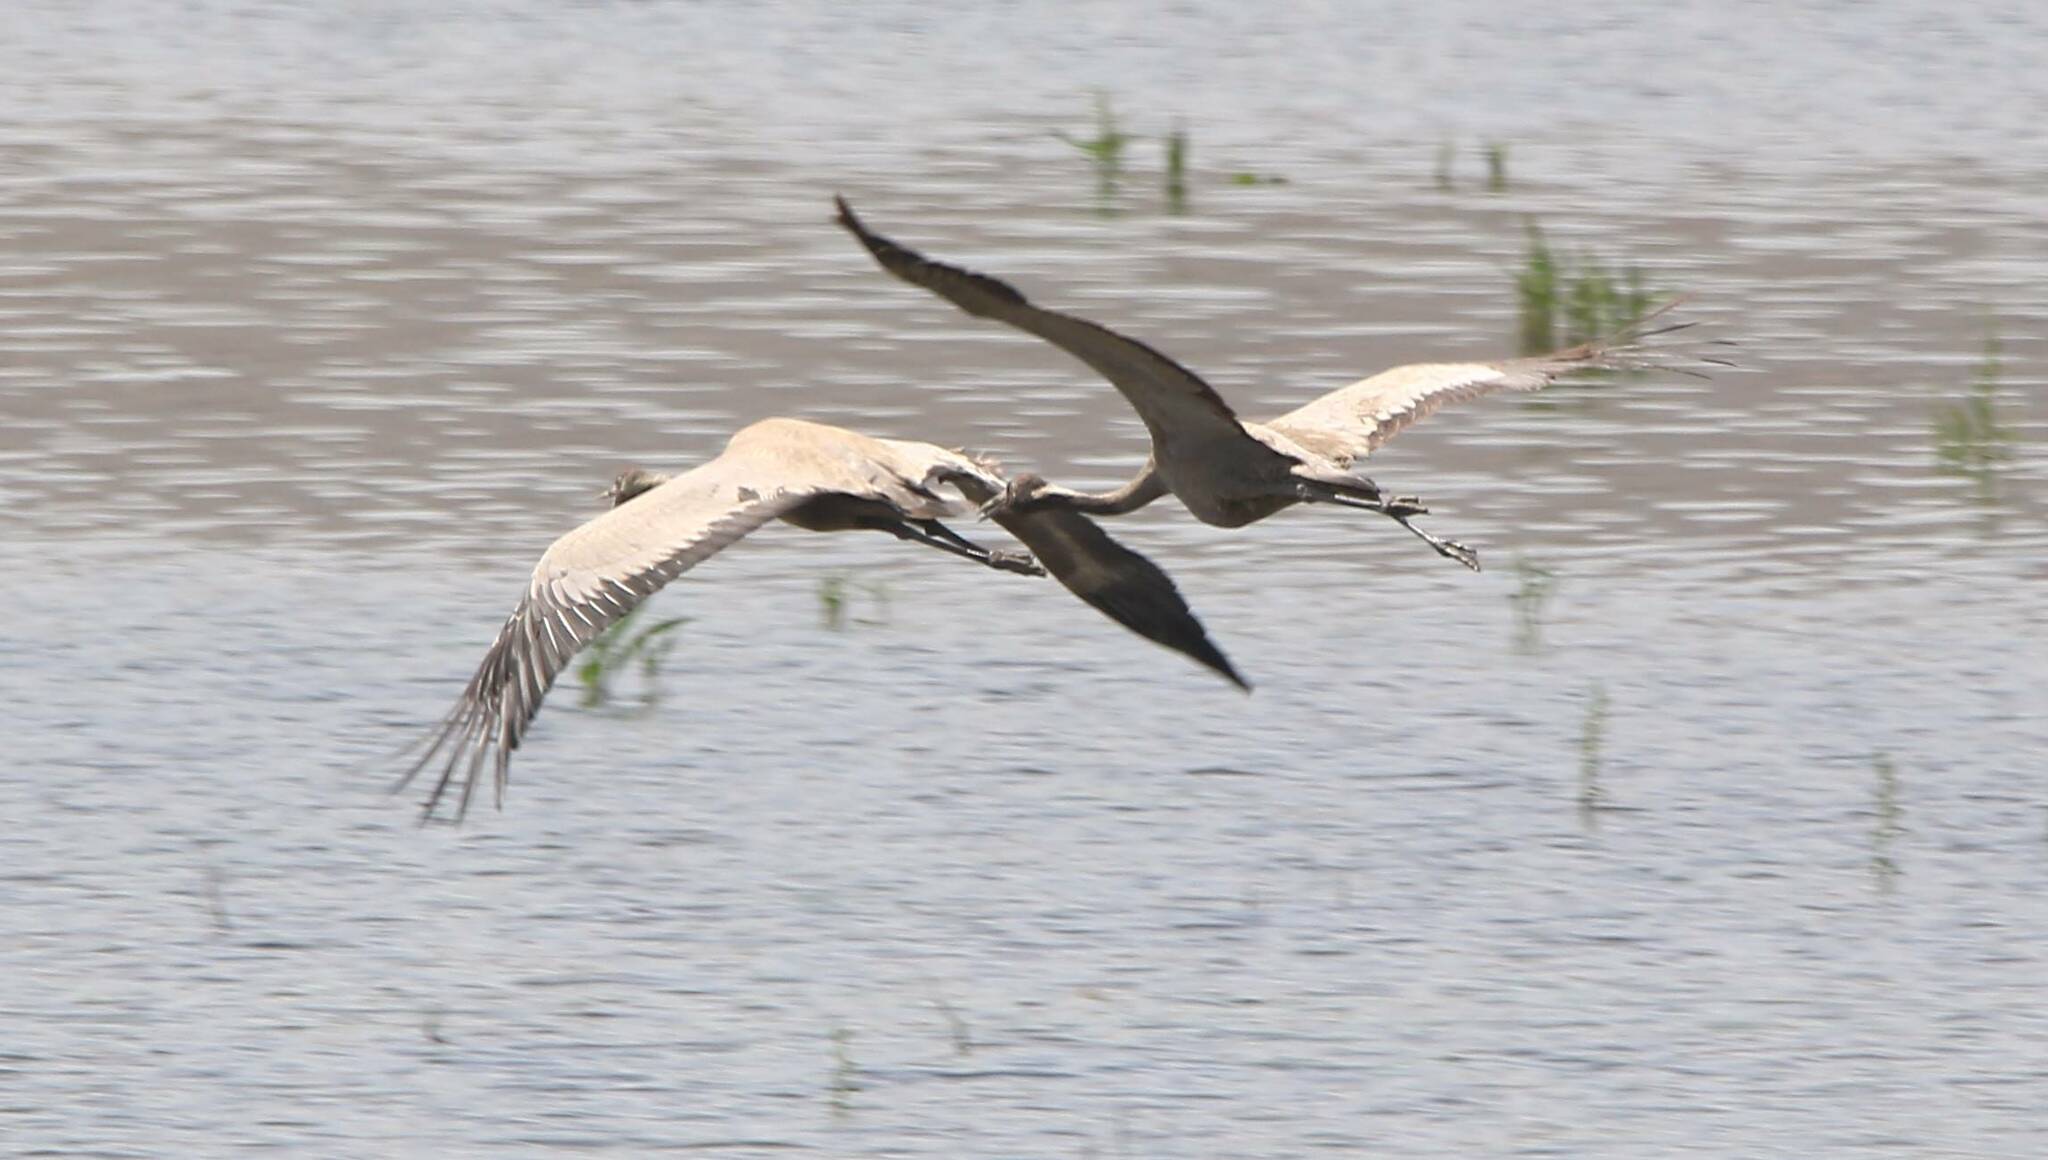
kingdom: Animalia
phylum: Chordata
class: Aves
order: Gruiformes
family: Gruidae
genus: Grus
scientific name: Grus grus
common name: Common crane
